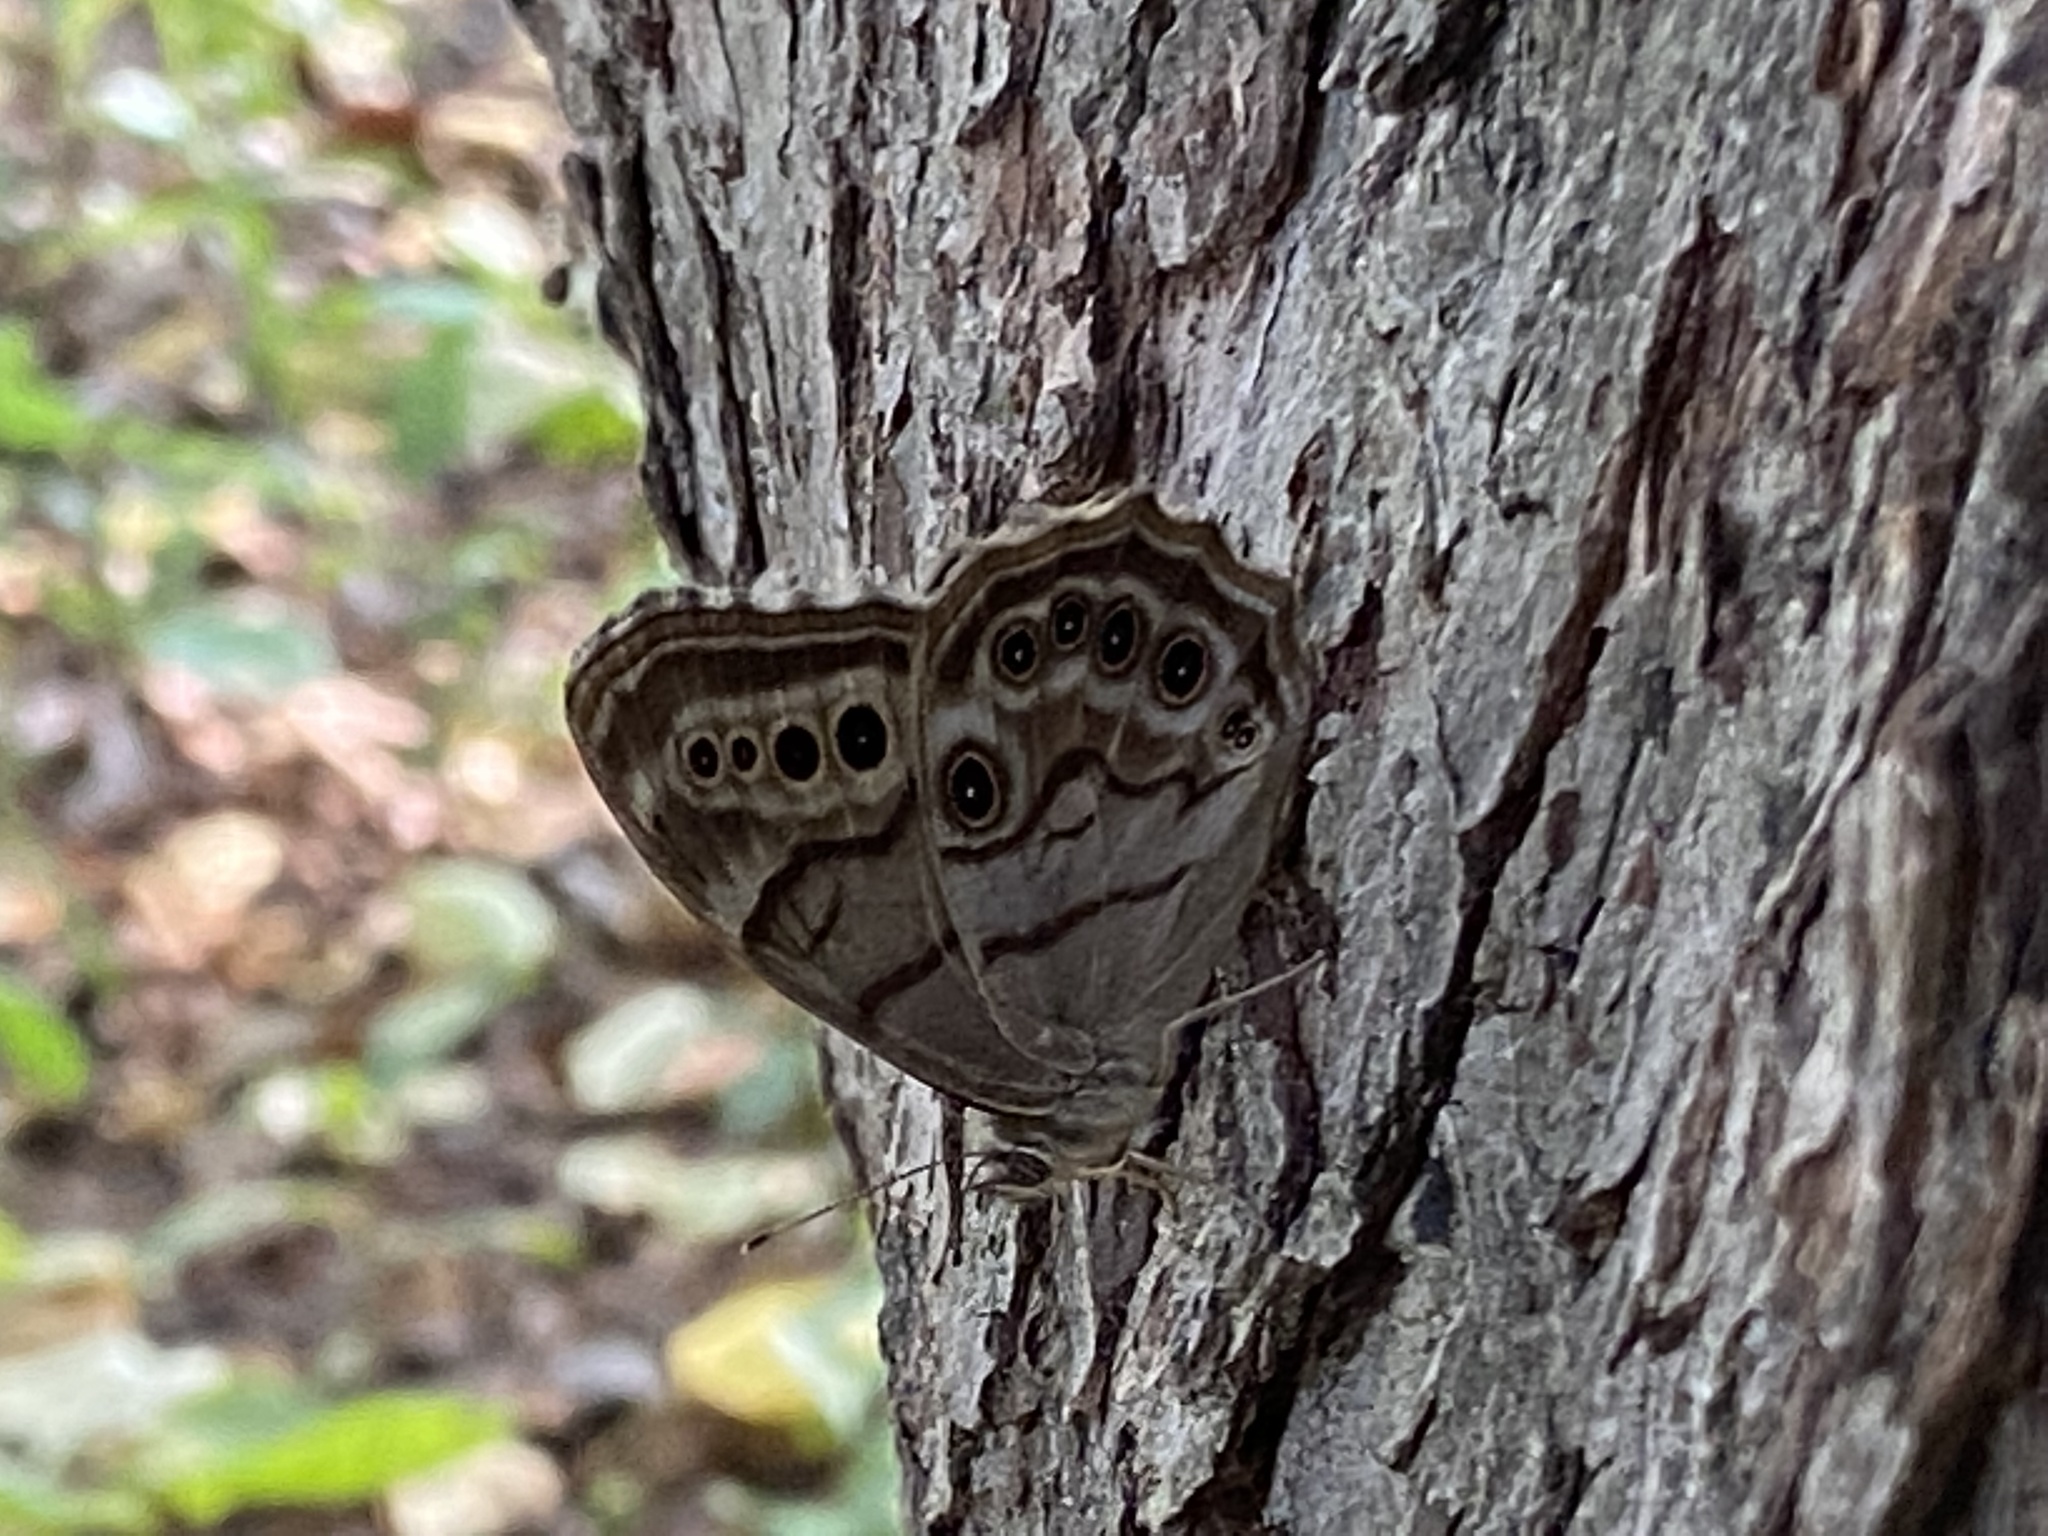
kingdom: Animalia
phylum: Arthropoda
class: Insecta
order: Lepidoptera
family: Nymphalidae
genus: Lethe
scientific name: Lethe anthedon
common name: Northern pearly-eye
